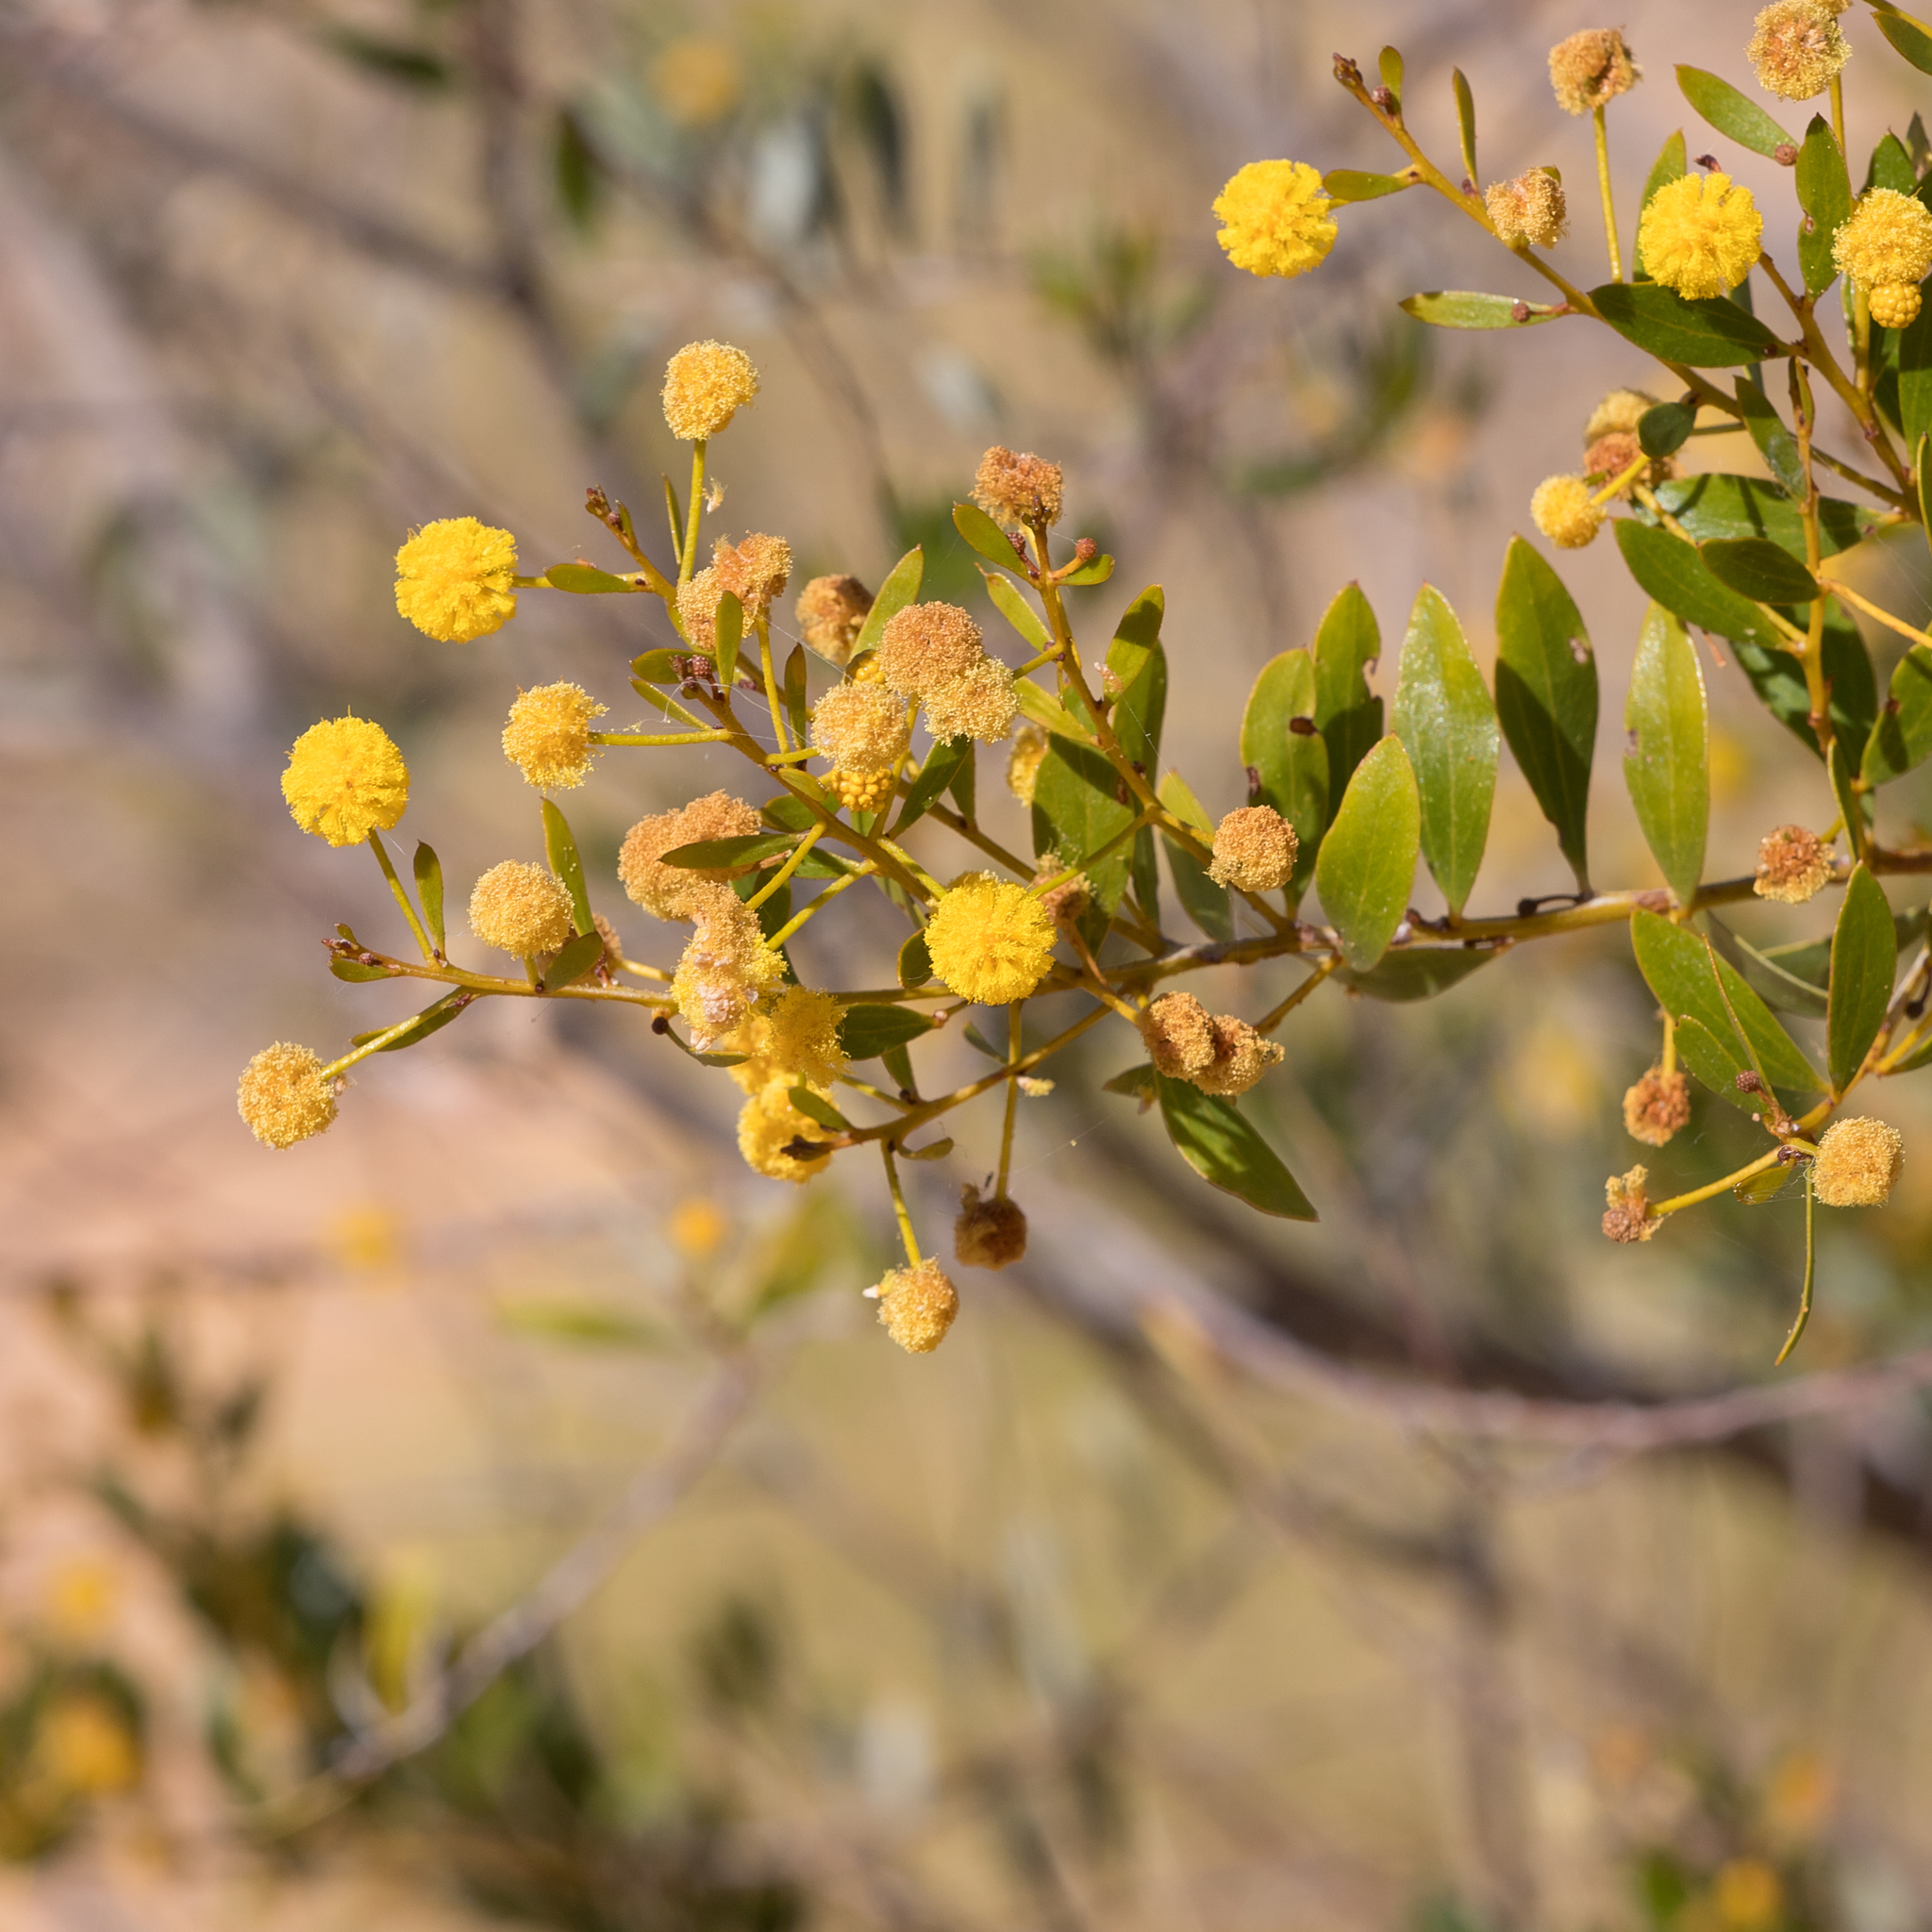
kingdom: Plantae
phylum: Tracheophyta
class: Magnoliopsida
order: Fabales
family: Fabaceae
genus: Acacia
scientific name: Acacia melleodora
